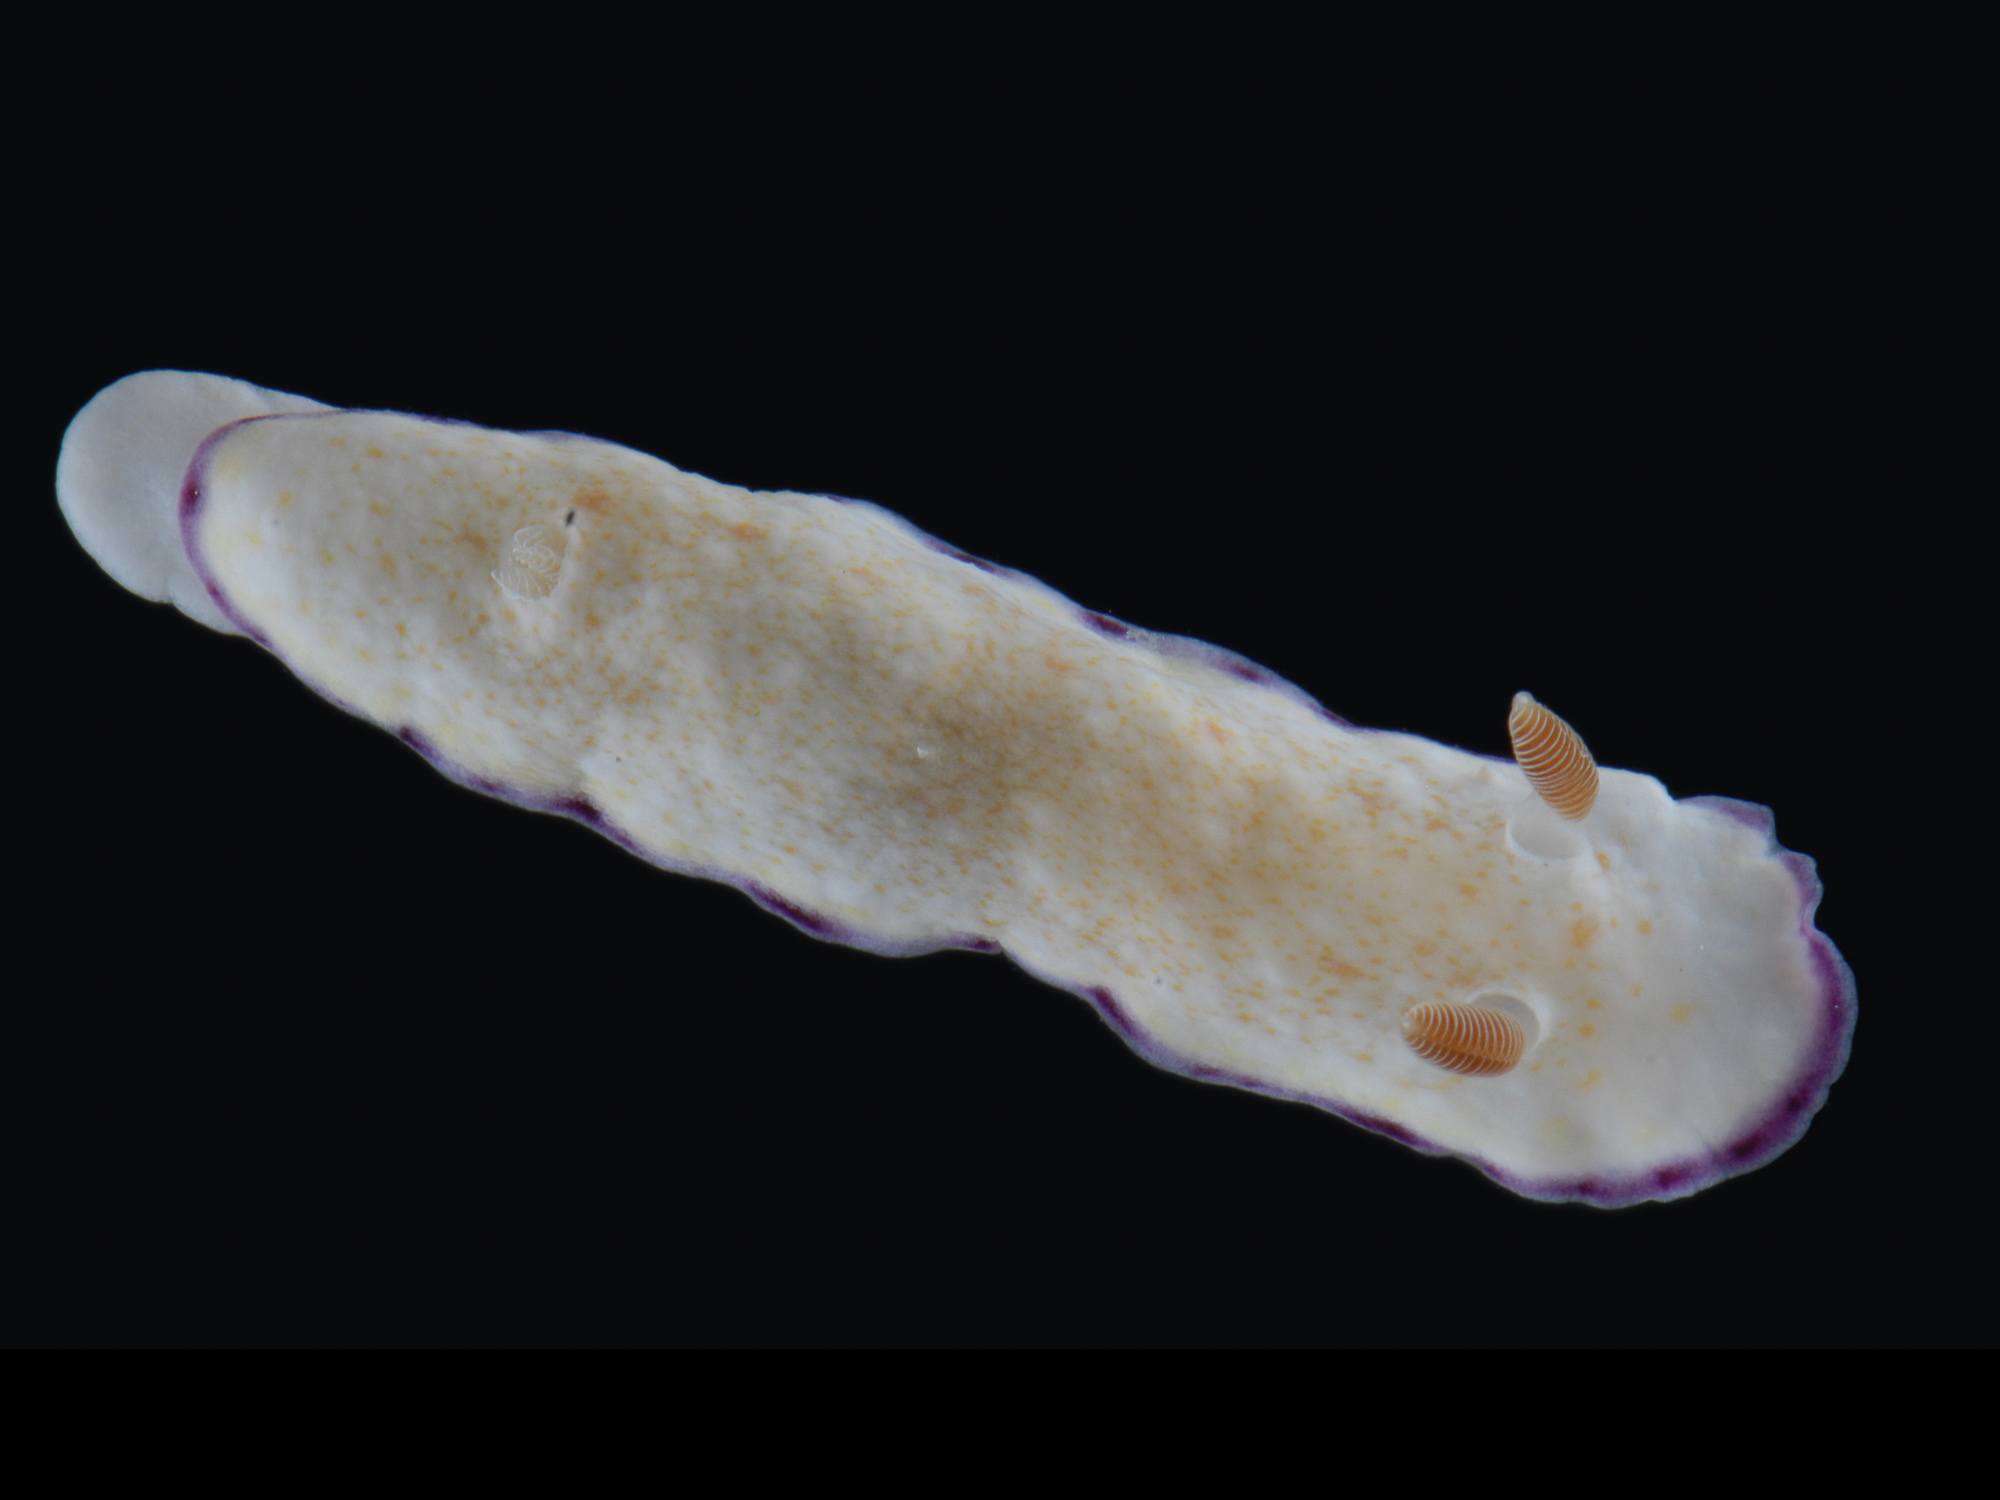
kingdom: Animalia
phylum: Mollusca
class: Gastropoda
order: Nudibranchia
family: Chromodorididae
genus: Goniobranchus
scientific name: Goniobranchus alius
